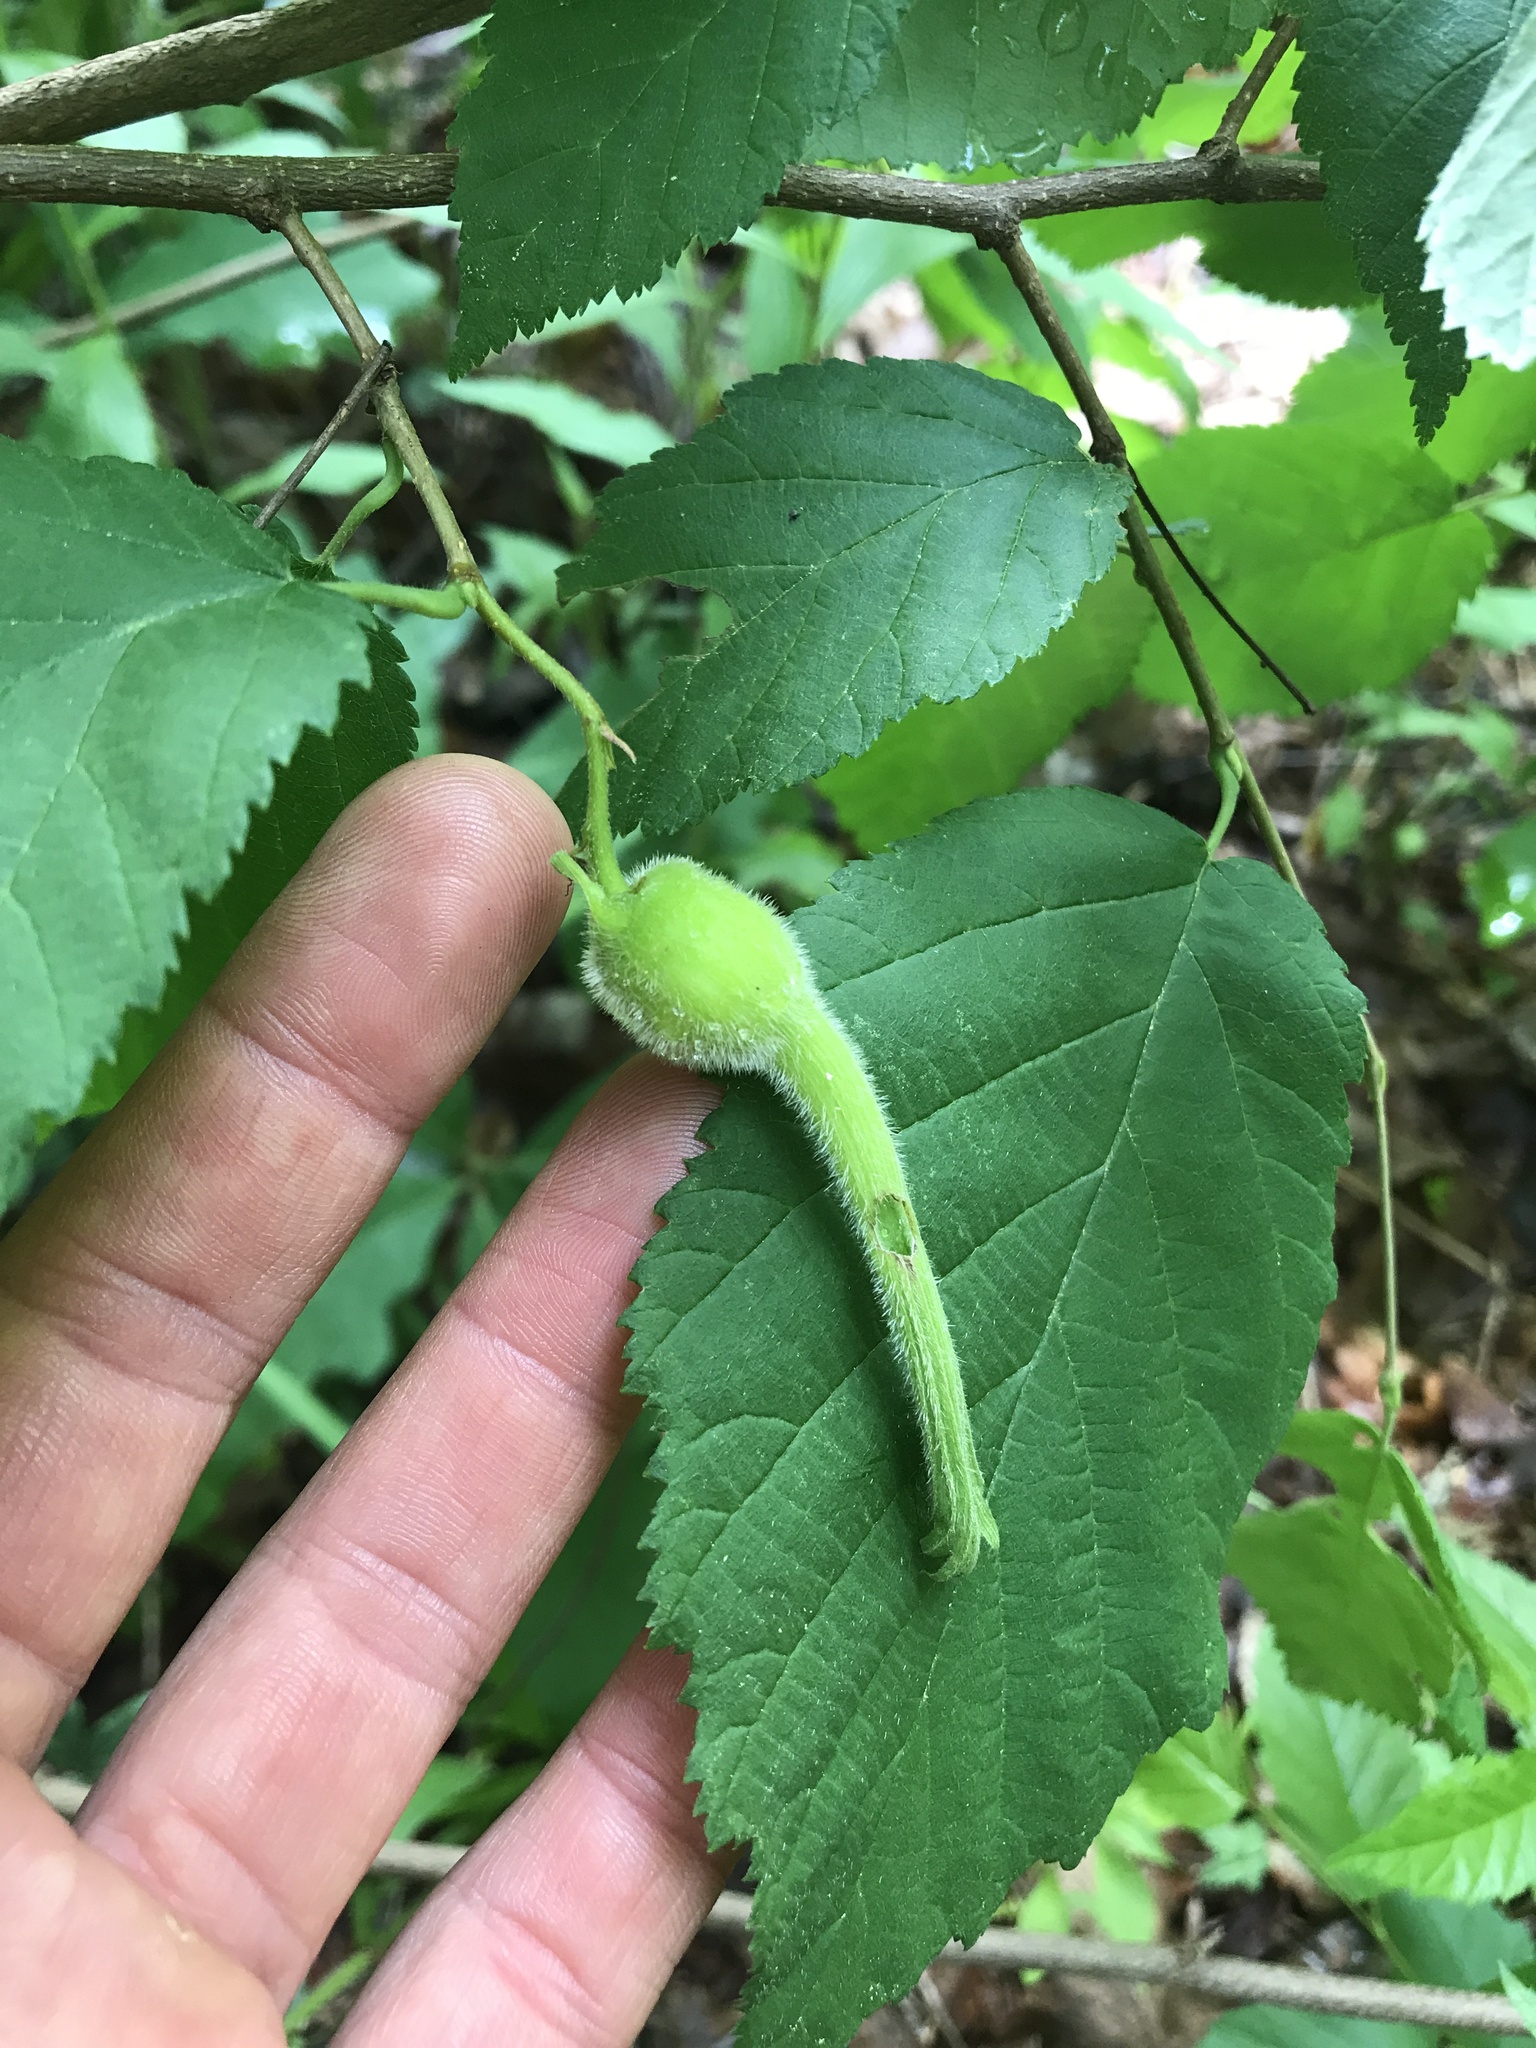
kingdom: Plantae
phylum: Tracheophyta
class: Magnoliopsida
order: Fagales
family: Betulaceae
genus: Corylus
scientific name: Corylus cornuta
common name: Beaked hazel
